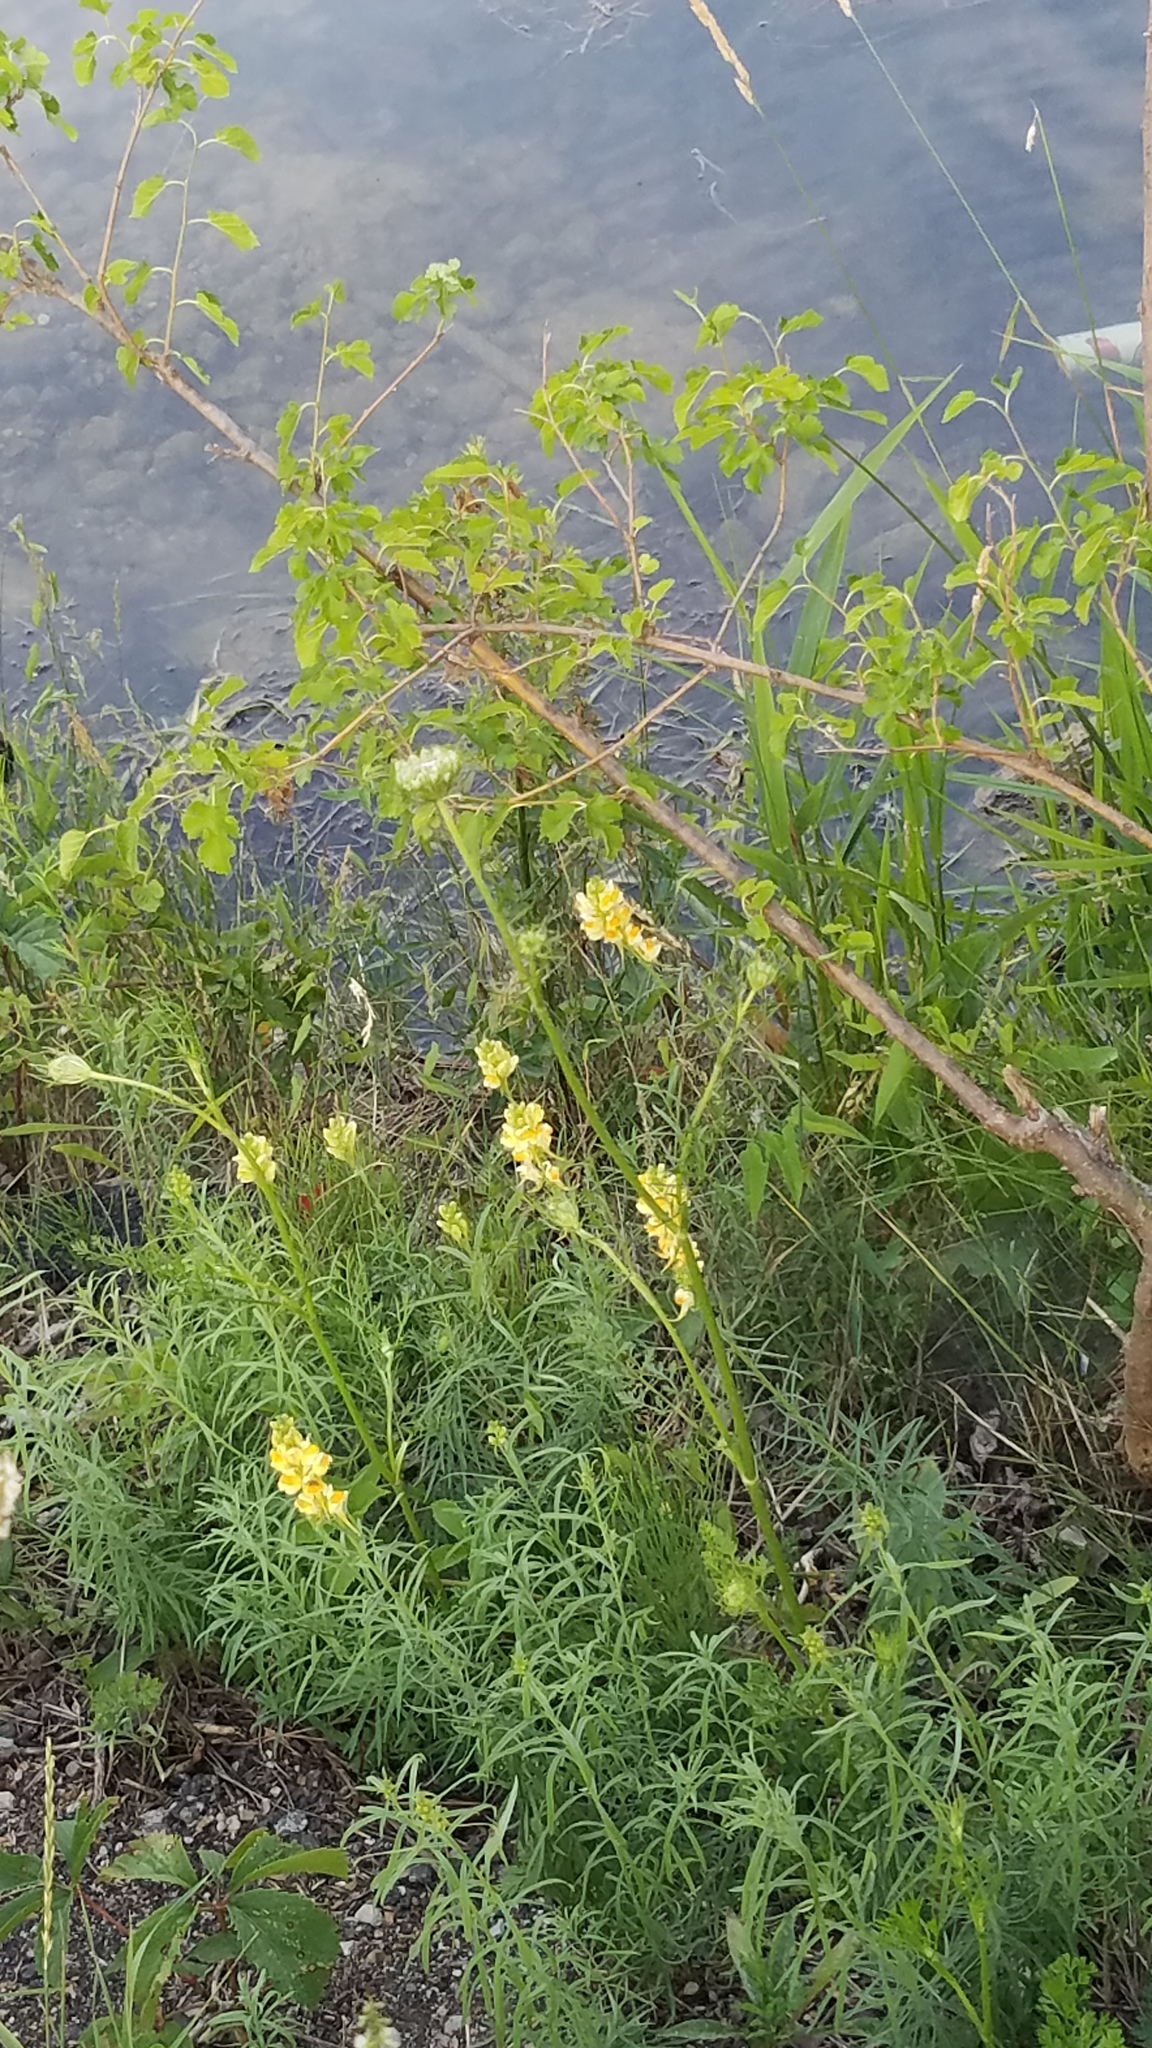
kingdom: Plantae
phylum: Tracheophyta
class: Magnoliopsida
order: Lamiales
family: Plantaginaceae
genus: Linaria
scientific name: Linaria vulgaris
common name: Butter and eggs
